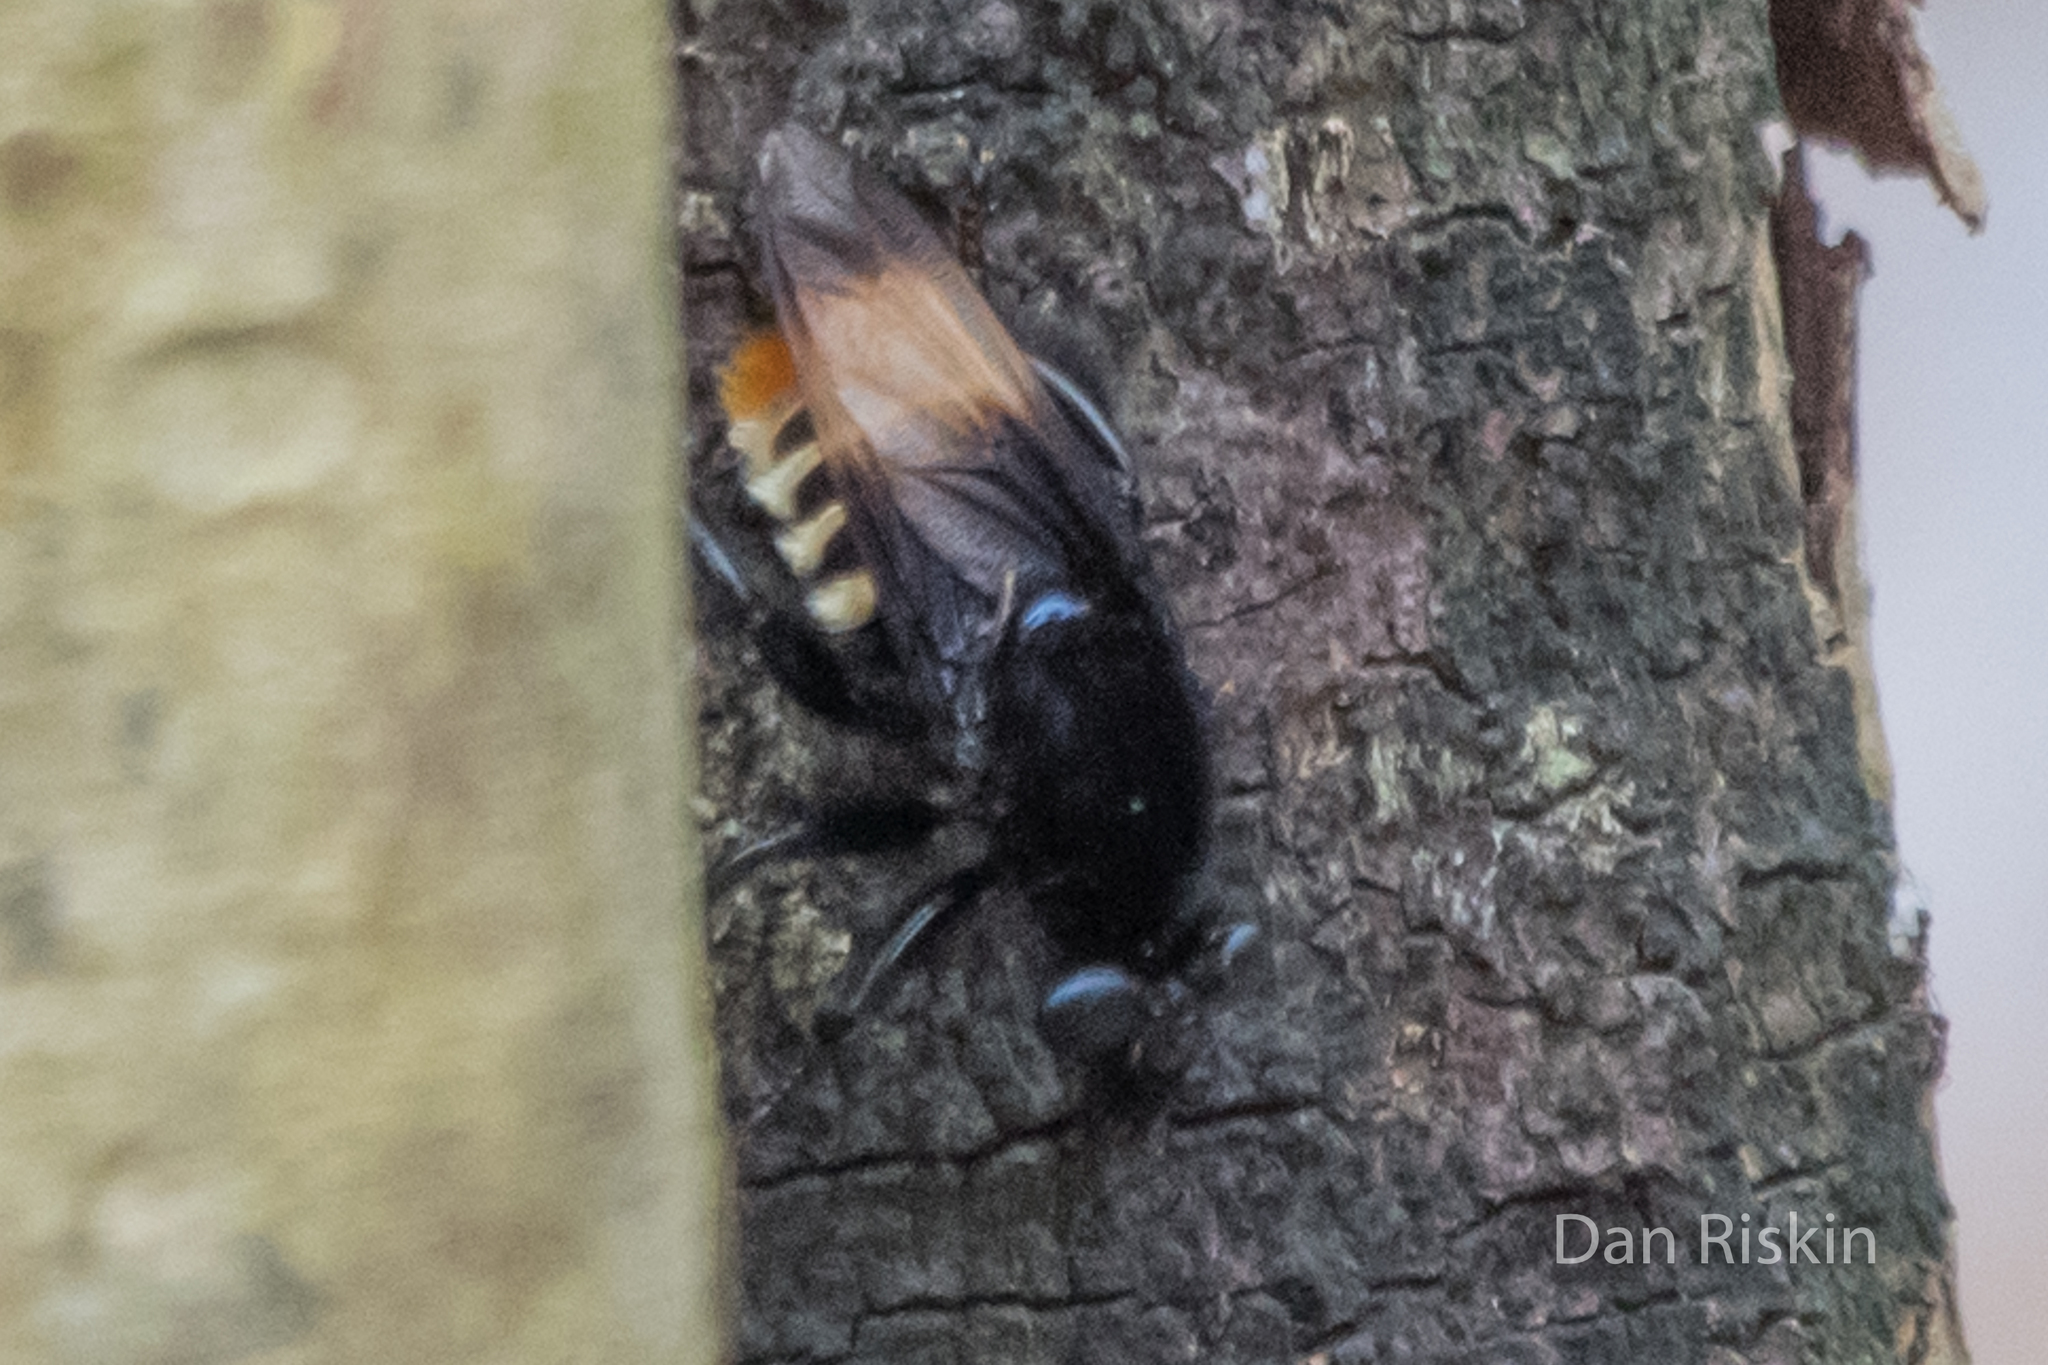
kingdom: Animalia
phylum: Arthropoda
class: Insecta
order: Diptera
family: Asilidae
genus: Dasyllis
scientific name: Dasyllis haemorrhoa
